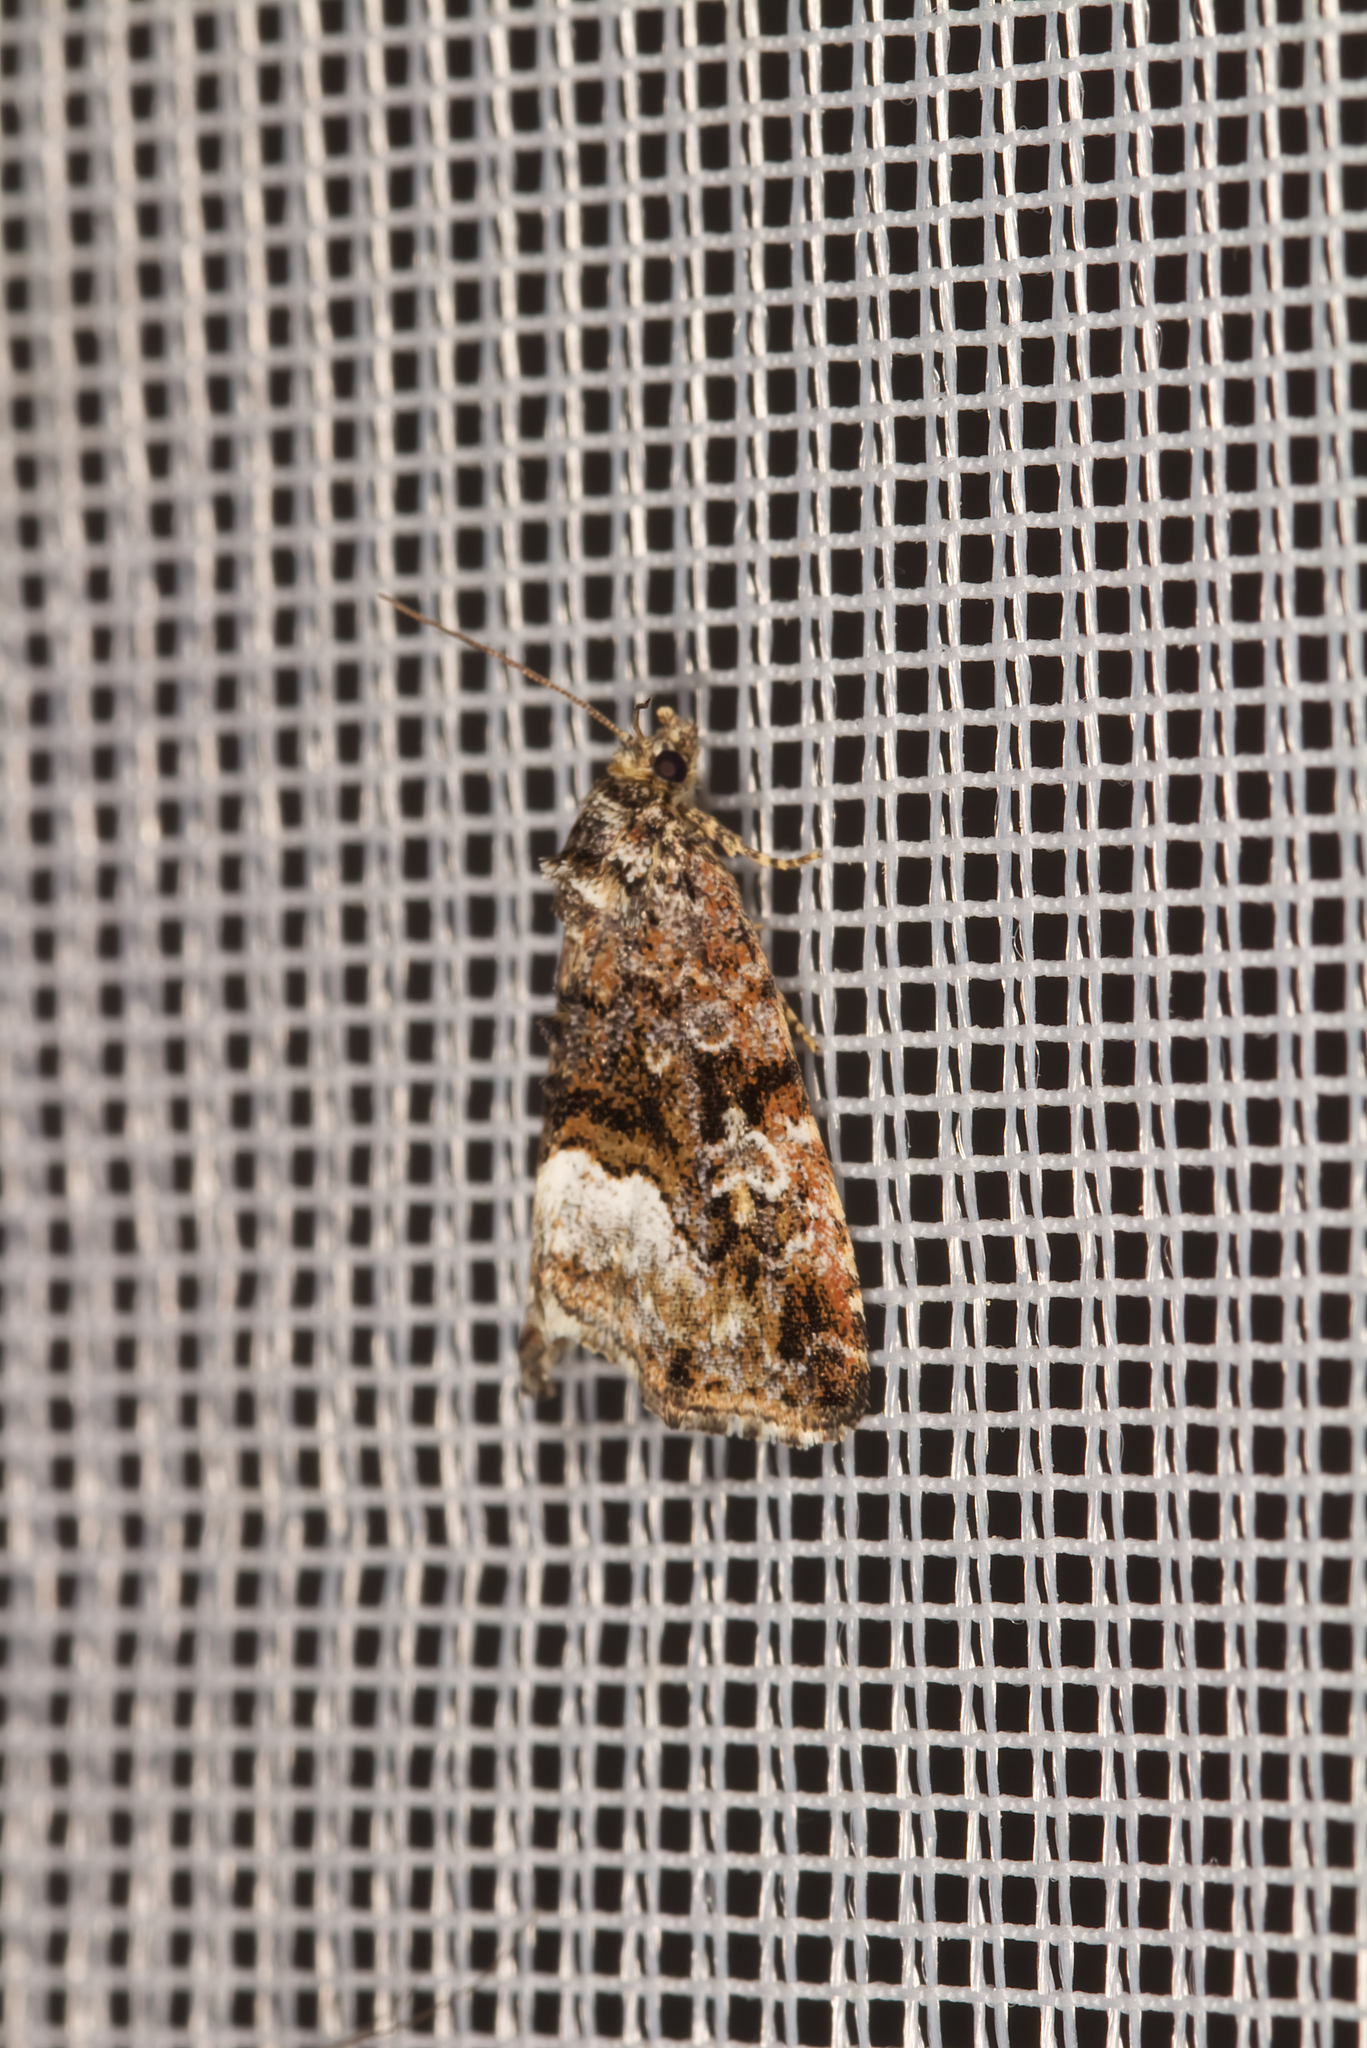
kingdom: Animalia
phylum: Arthropoda
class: Insecta
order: Lepidoptera
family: Noctuidae
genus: Deltote
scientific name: Deltote pygarga
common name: Marbled white spot
